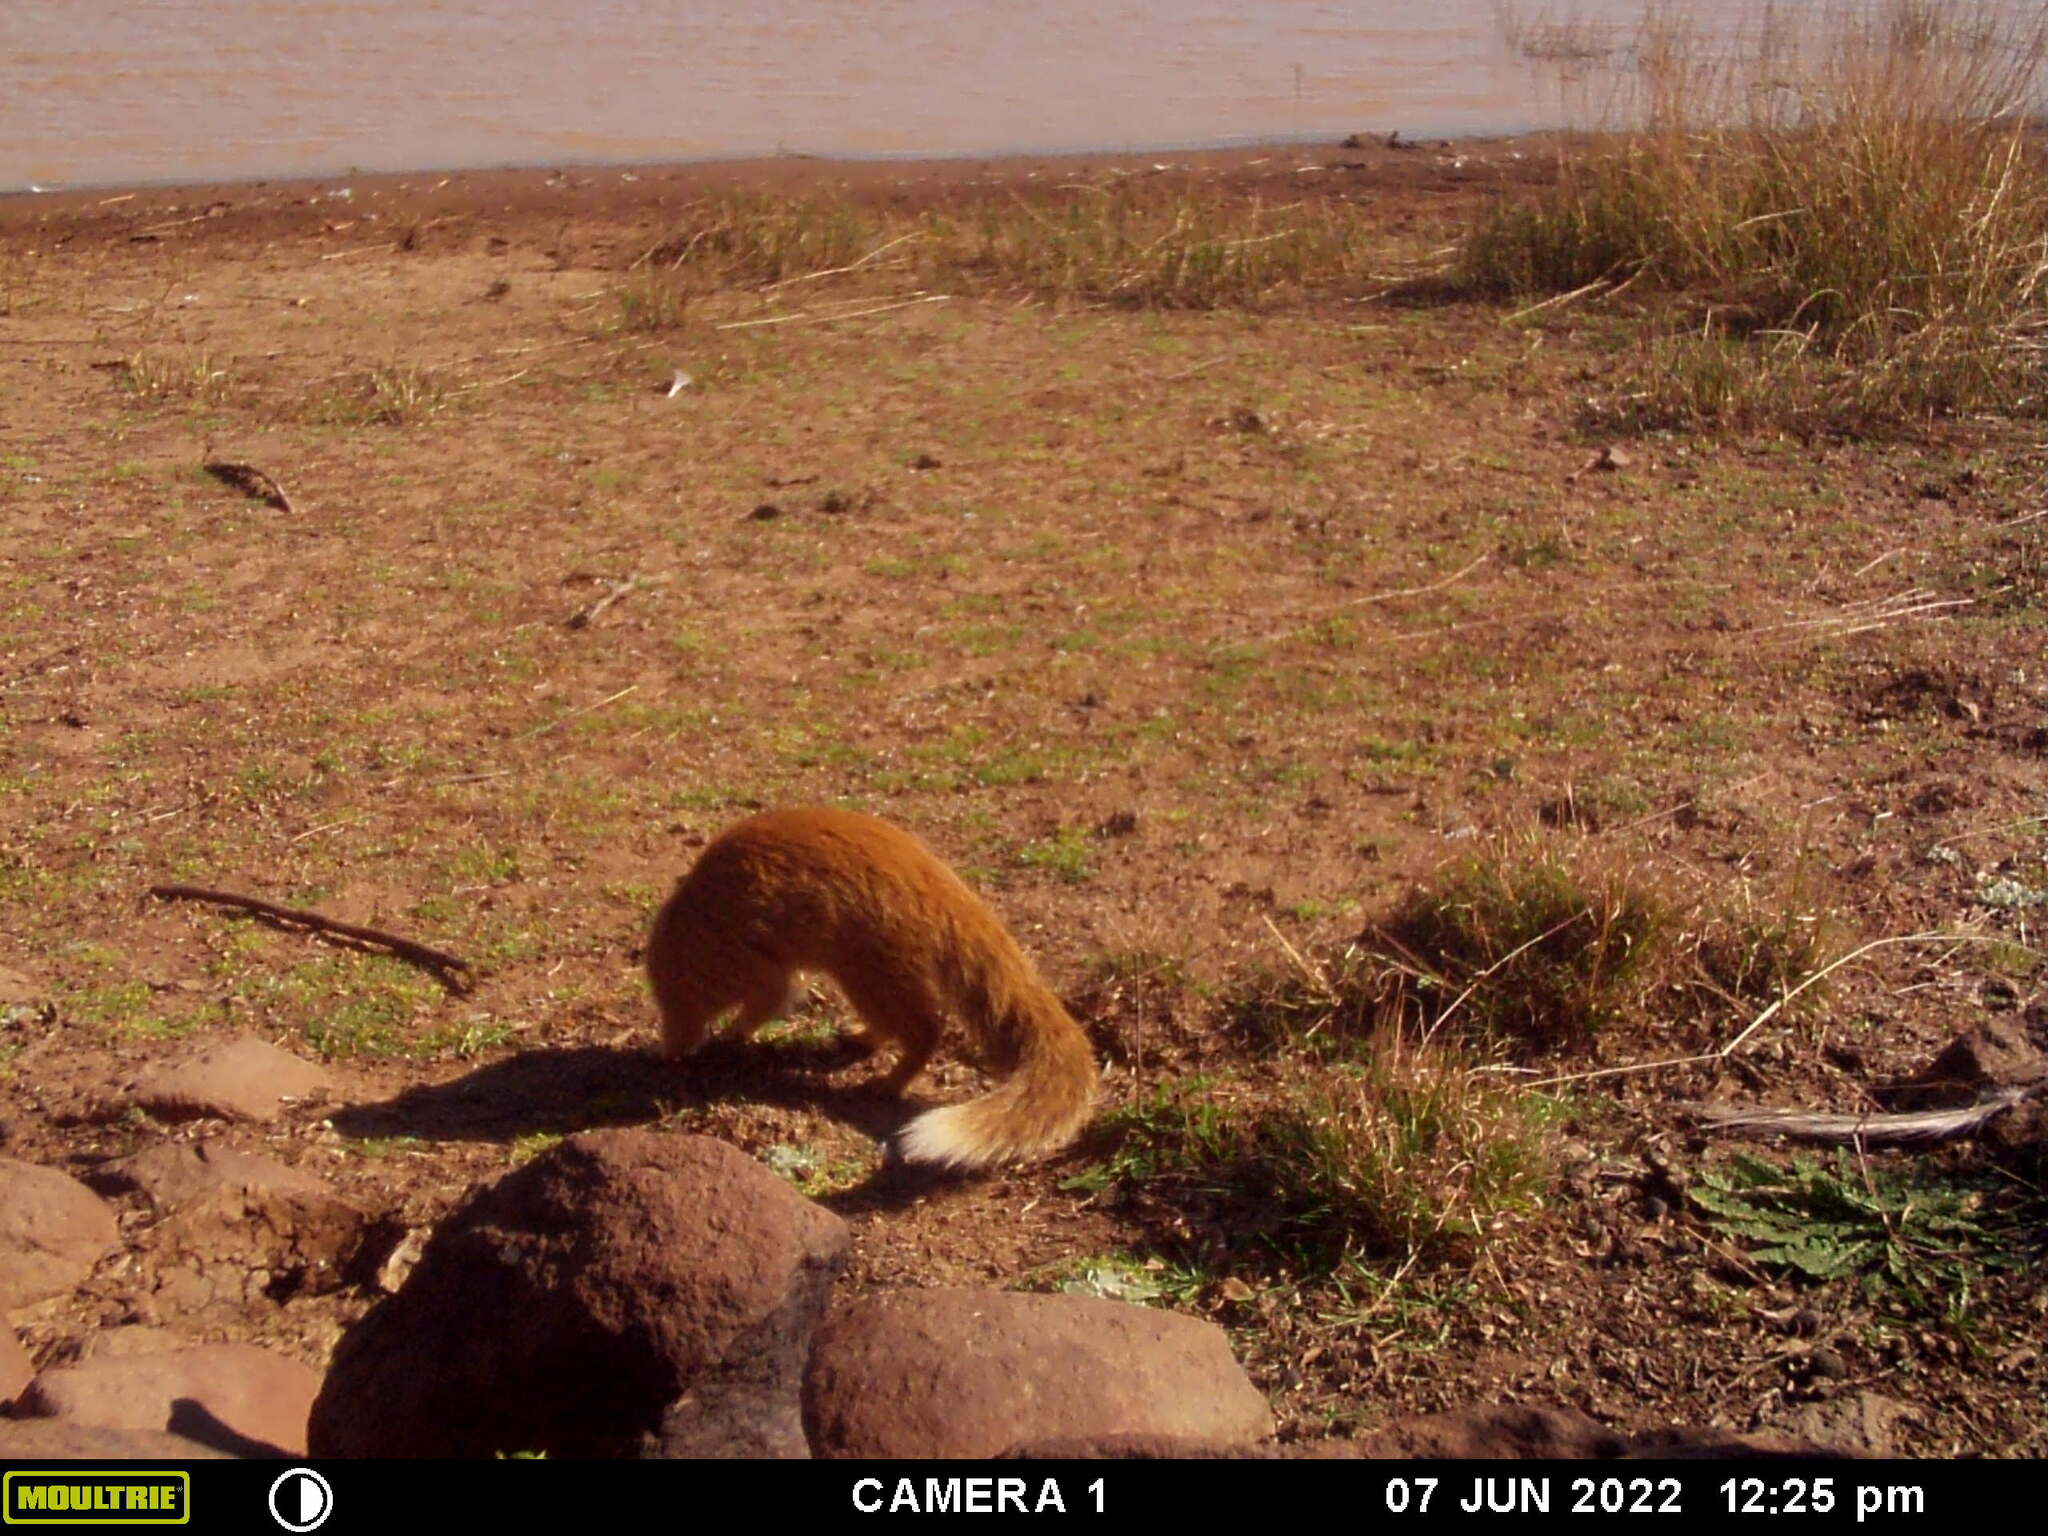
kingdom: Animalia
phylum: Chordata
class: Mammalia
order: Carnivora
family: Herpestidae
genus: Cynictis
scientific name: Cynictis penicillata
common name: Yellow mongoose
